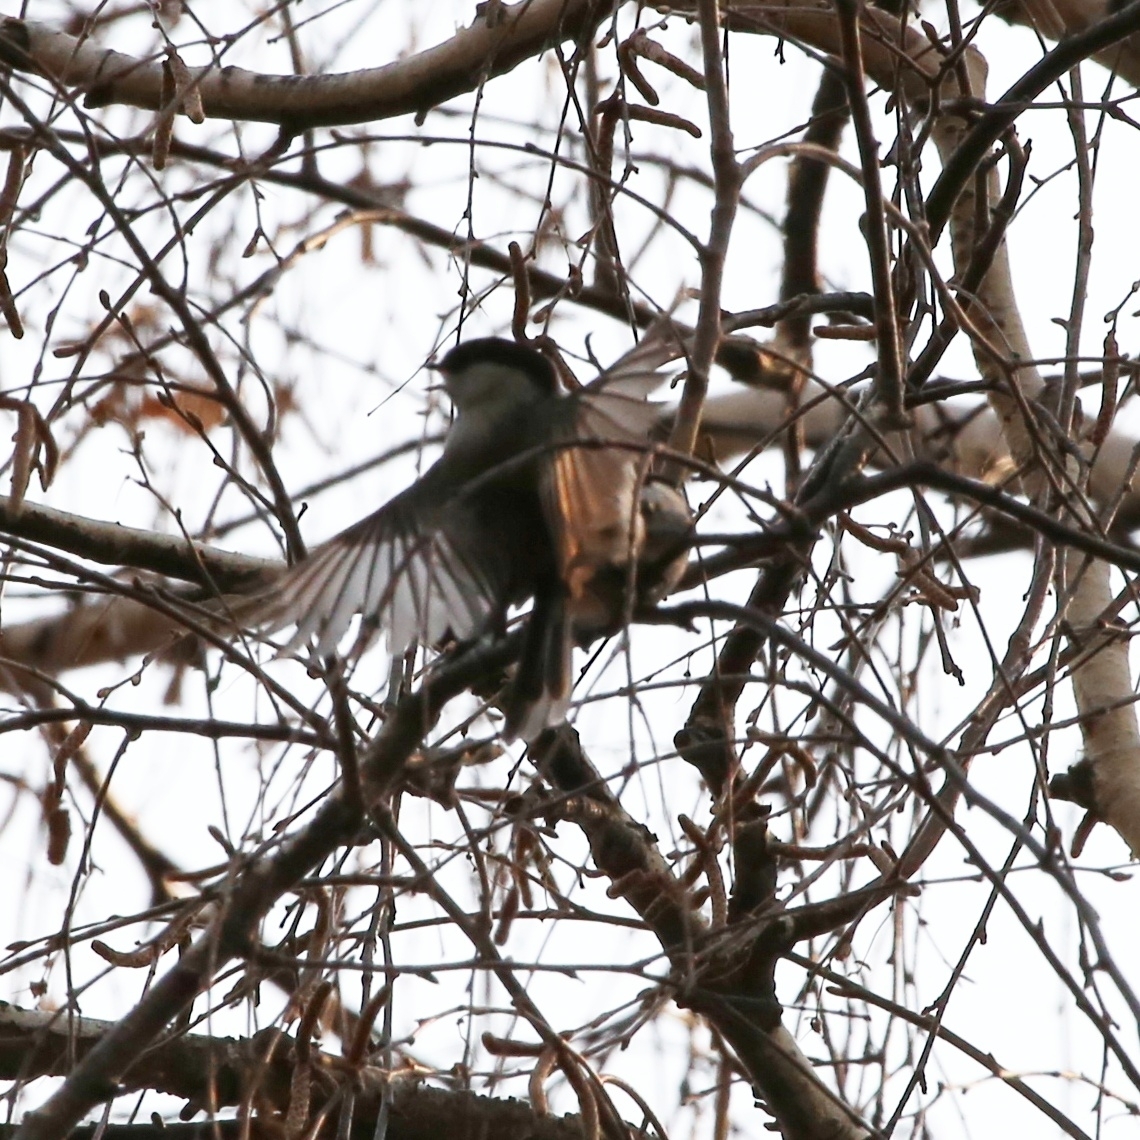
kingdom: Animalia
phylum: Chordata
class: Aves
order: Passeriformes
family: Paridae
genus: Poecile
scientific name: Poecile montanus
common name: Willow tit
